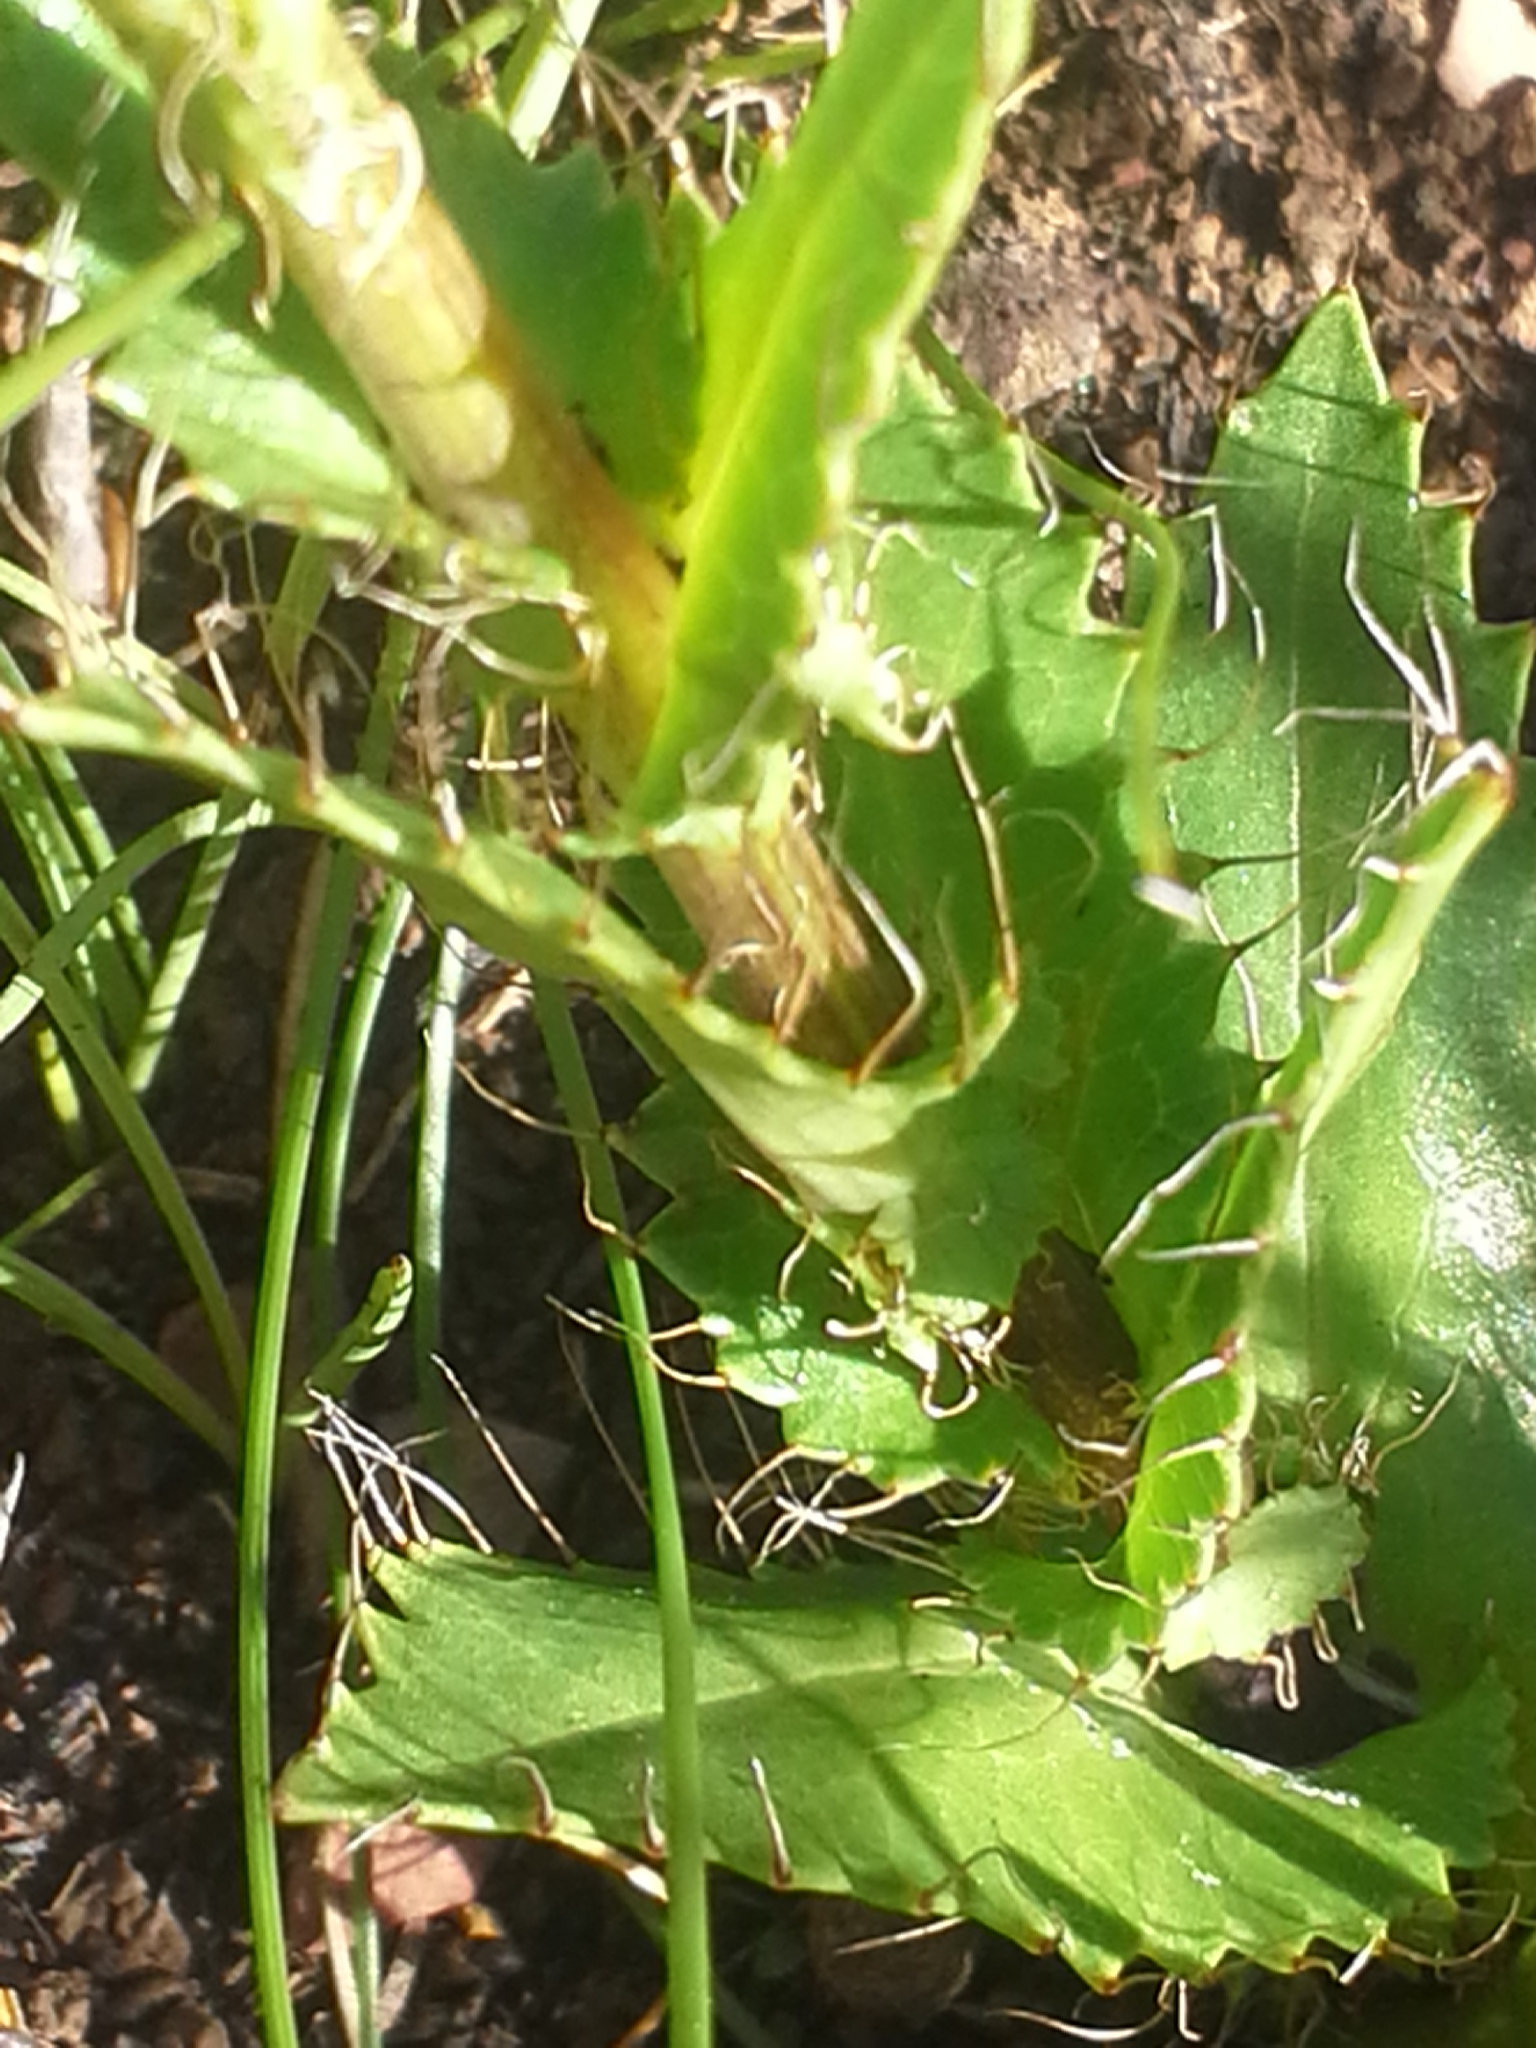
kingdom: Plantae
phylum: Tracheophyta
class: Magnoliopsida
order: Apiales
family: Apiaceae
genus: Alepidea
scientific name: Alepidea setifera
